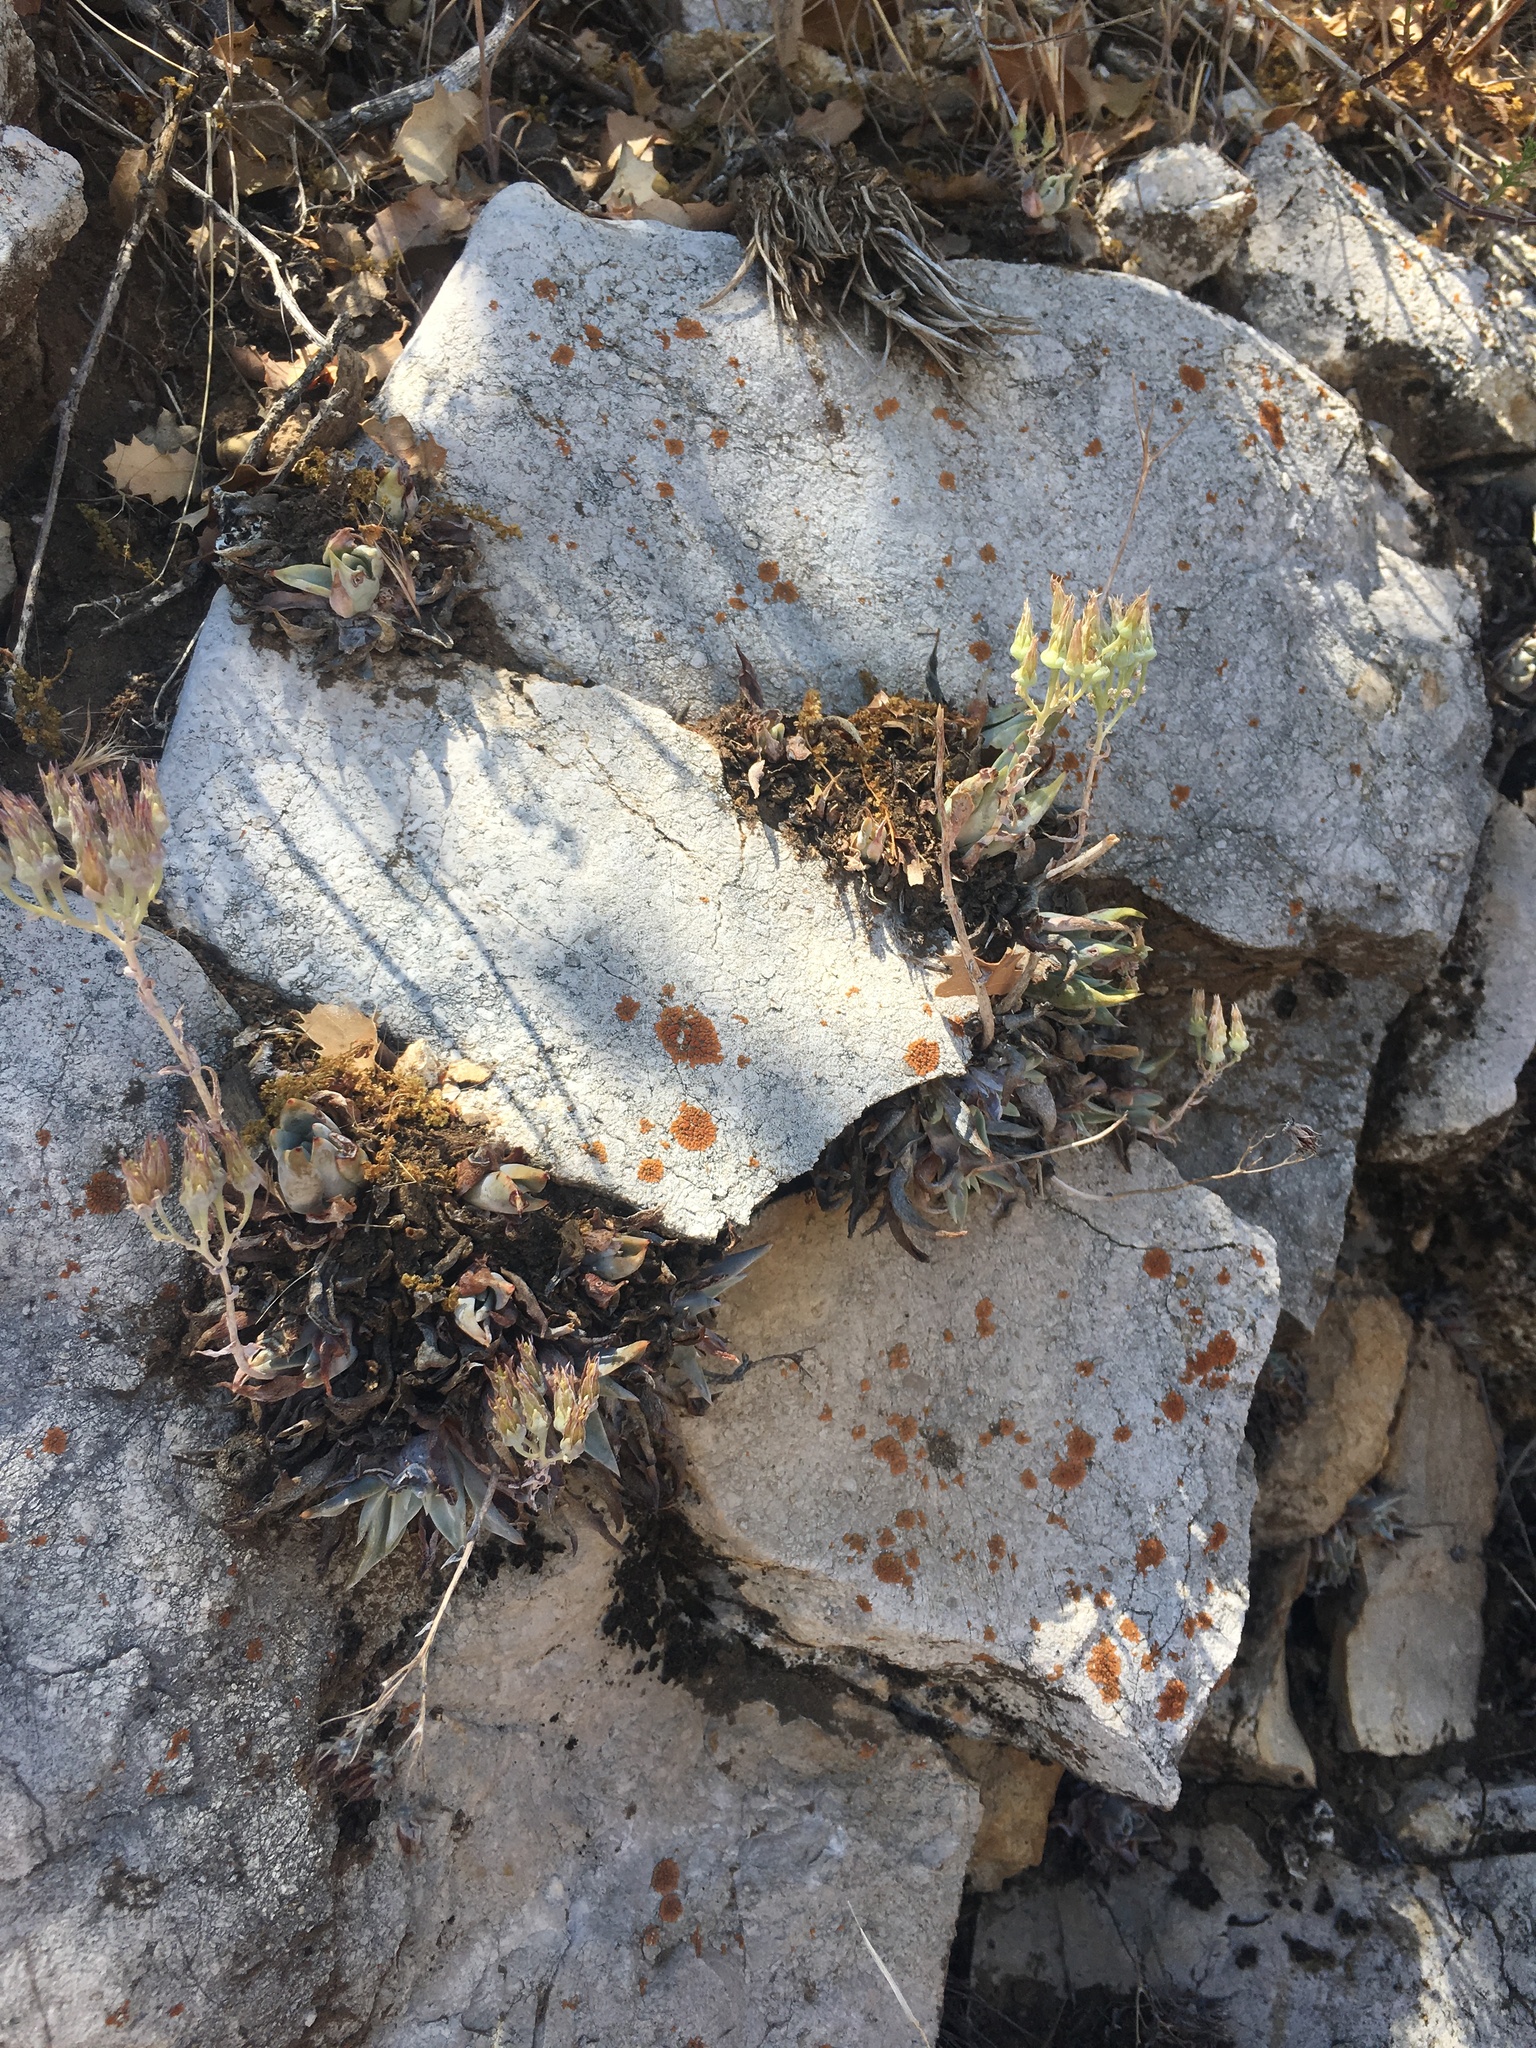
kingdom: Plantae
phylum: Tracheophyta
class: Magnoliopsida
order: Saxifragales
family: Crassulaceae
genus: Dudleya
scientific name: Dudleya cymosa
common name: Canyon dudleya
